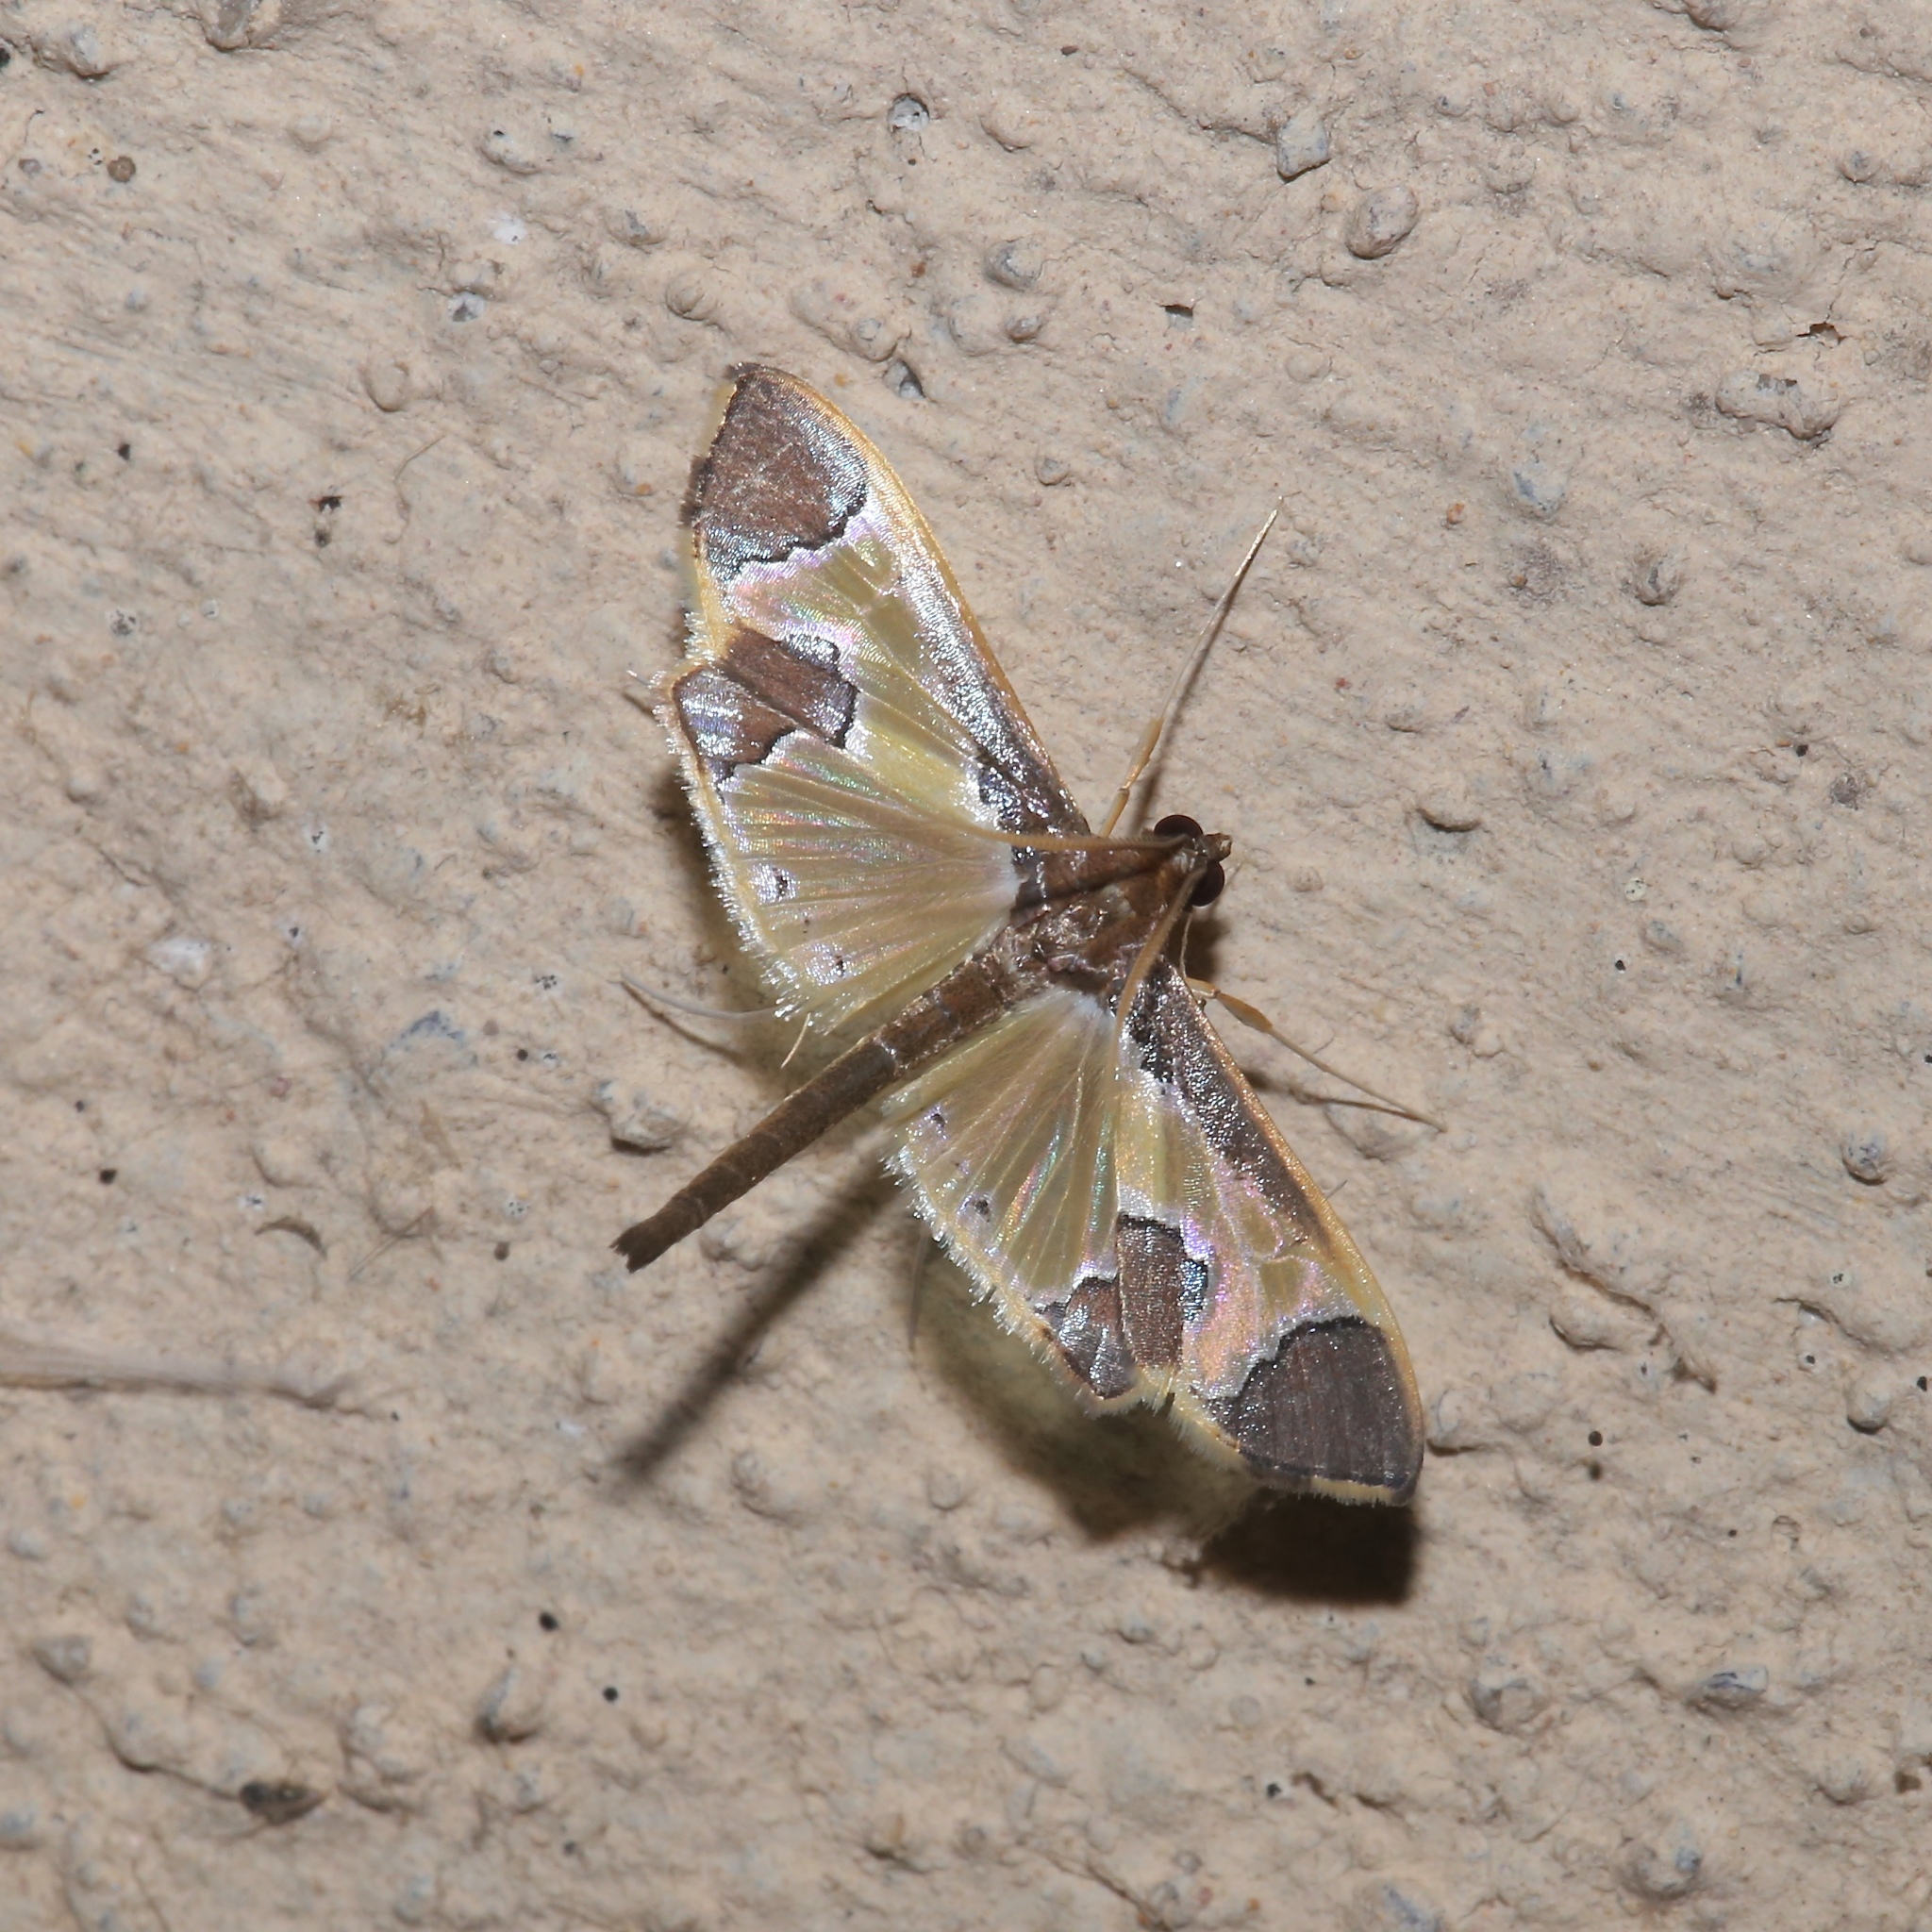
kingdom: Animalia
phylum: Arthropoda
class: Insecta
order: Lepidoptera
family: Crambidae
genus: Syllepis
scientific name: Syllepis marialis
